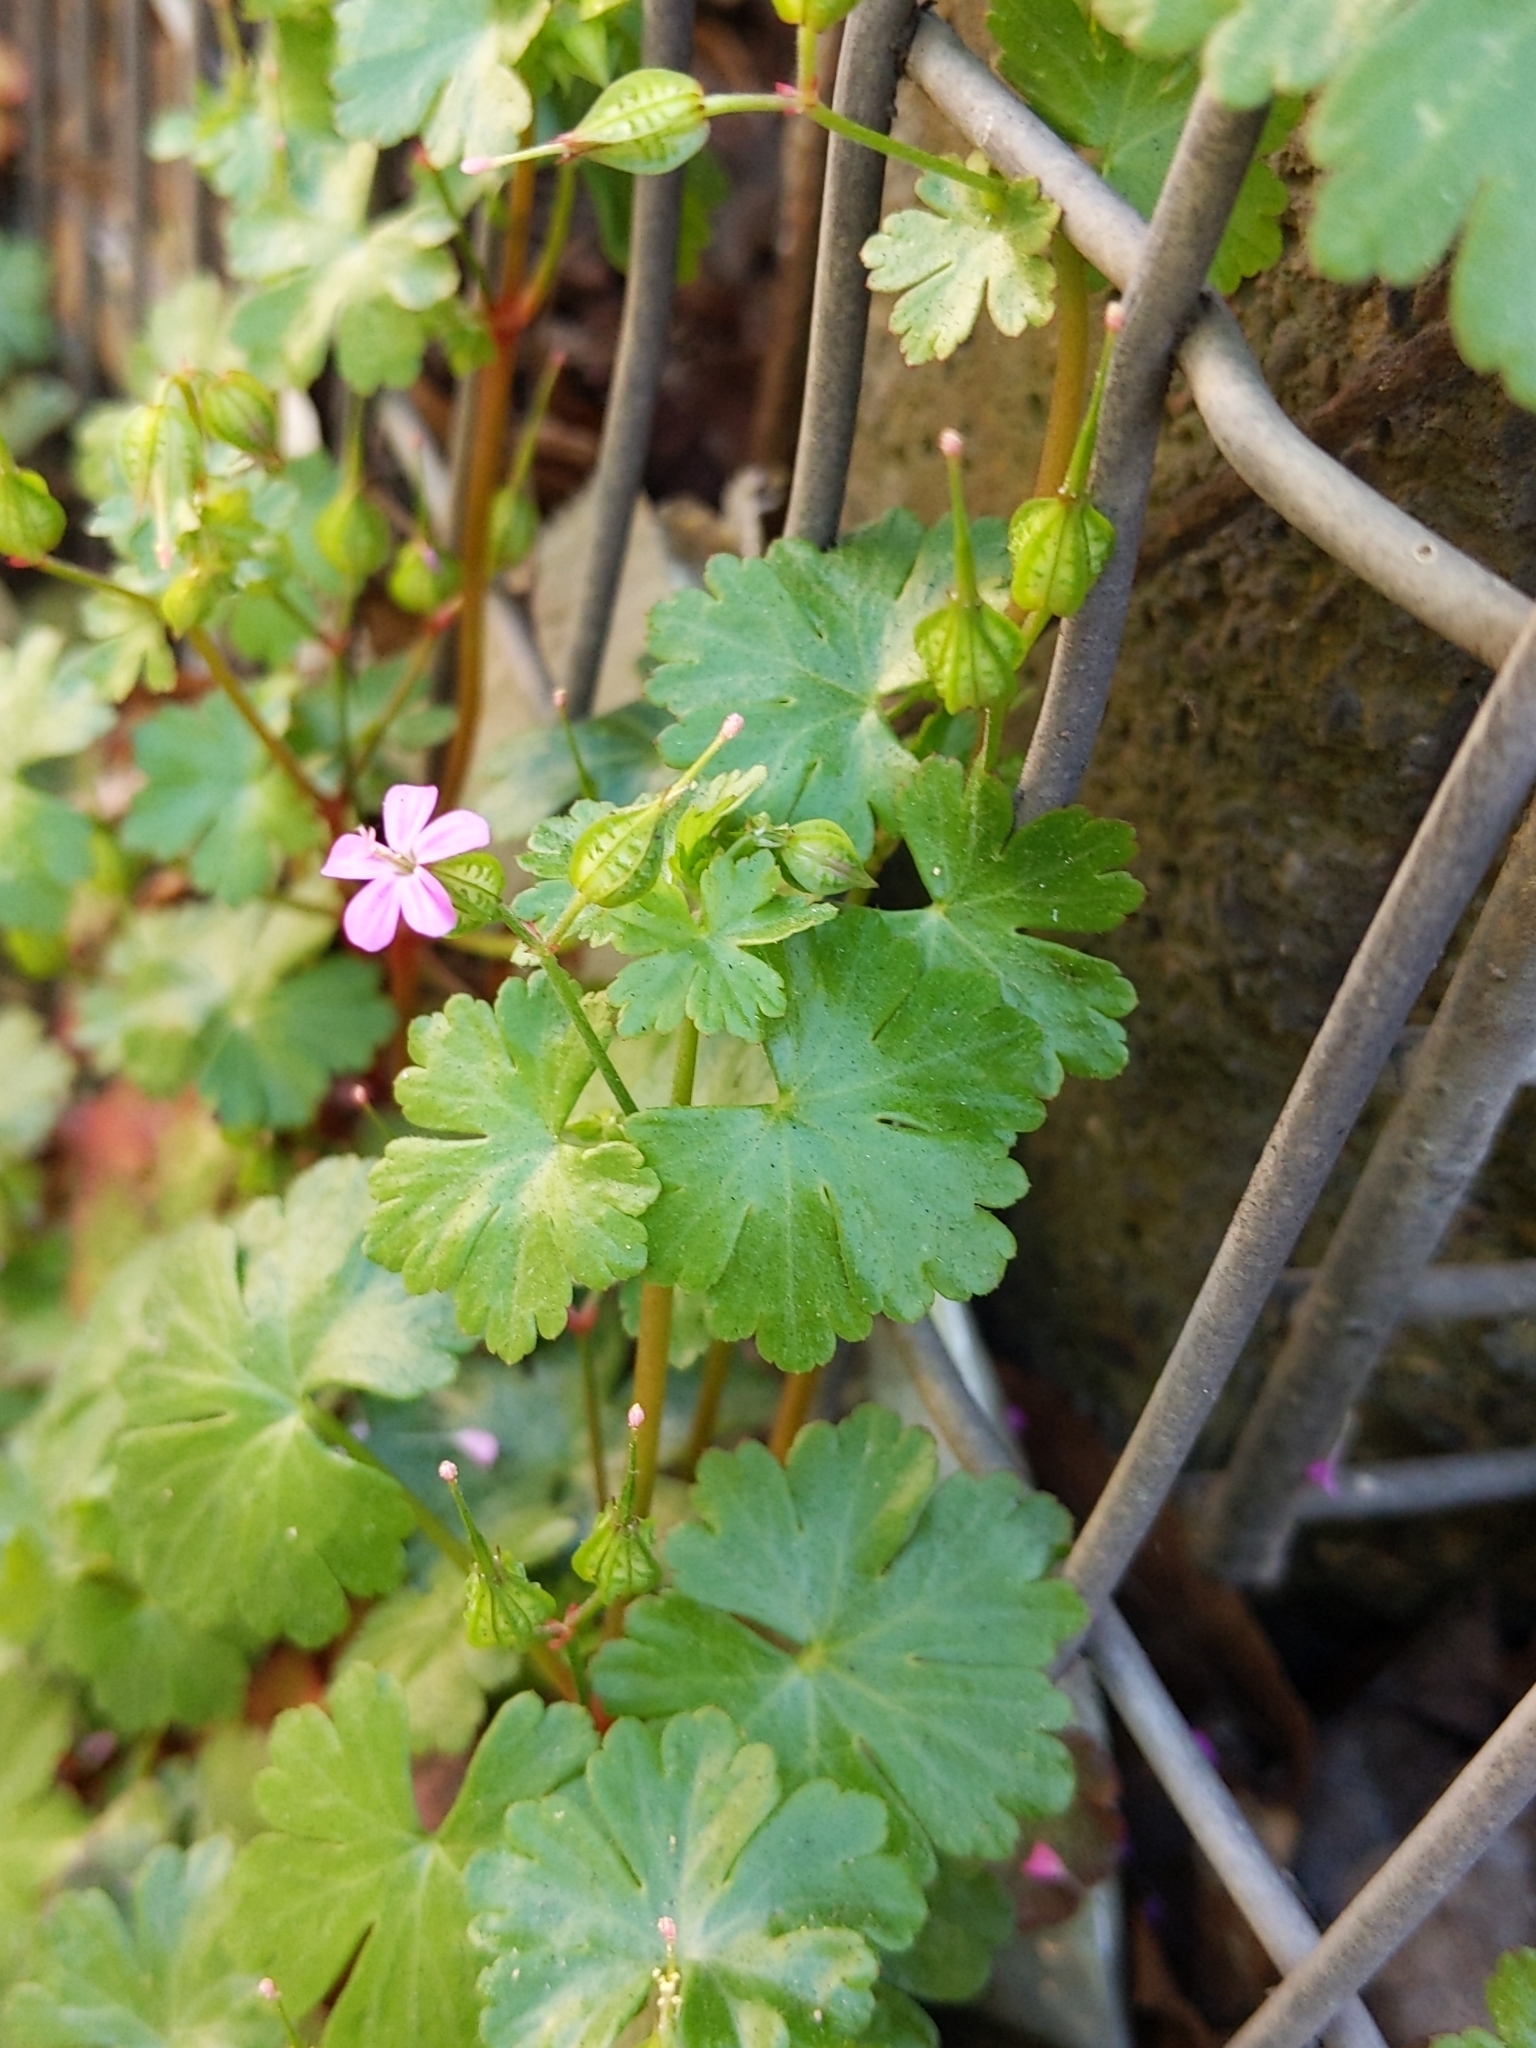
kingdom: Plantae
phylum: Tracheophyta
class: Magnoliopsida
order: Geraniales
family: Geraniaceae
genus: Geranium
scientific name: Geranium lucidum
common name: Shining crane's-bill
